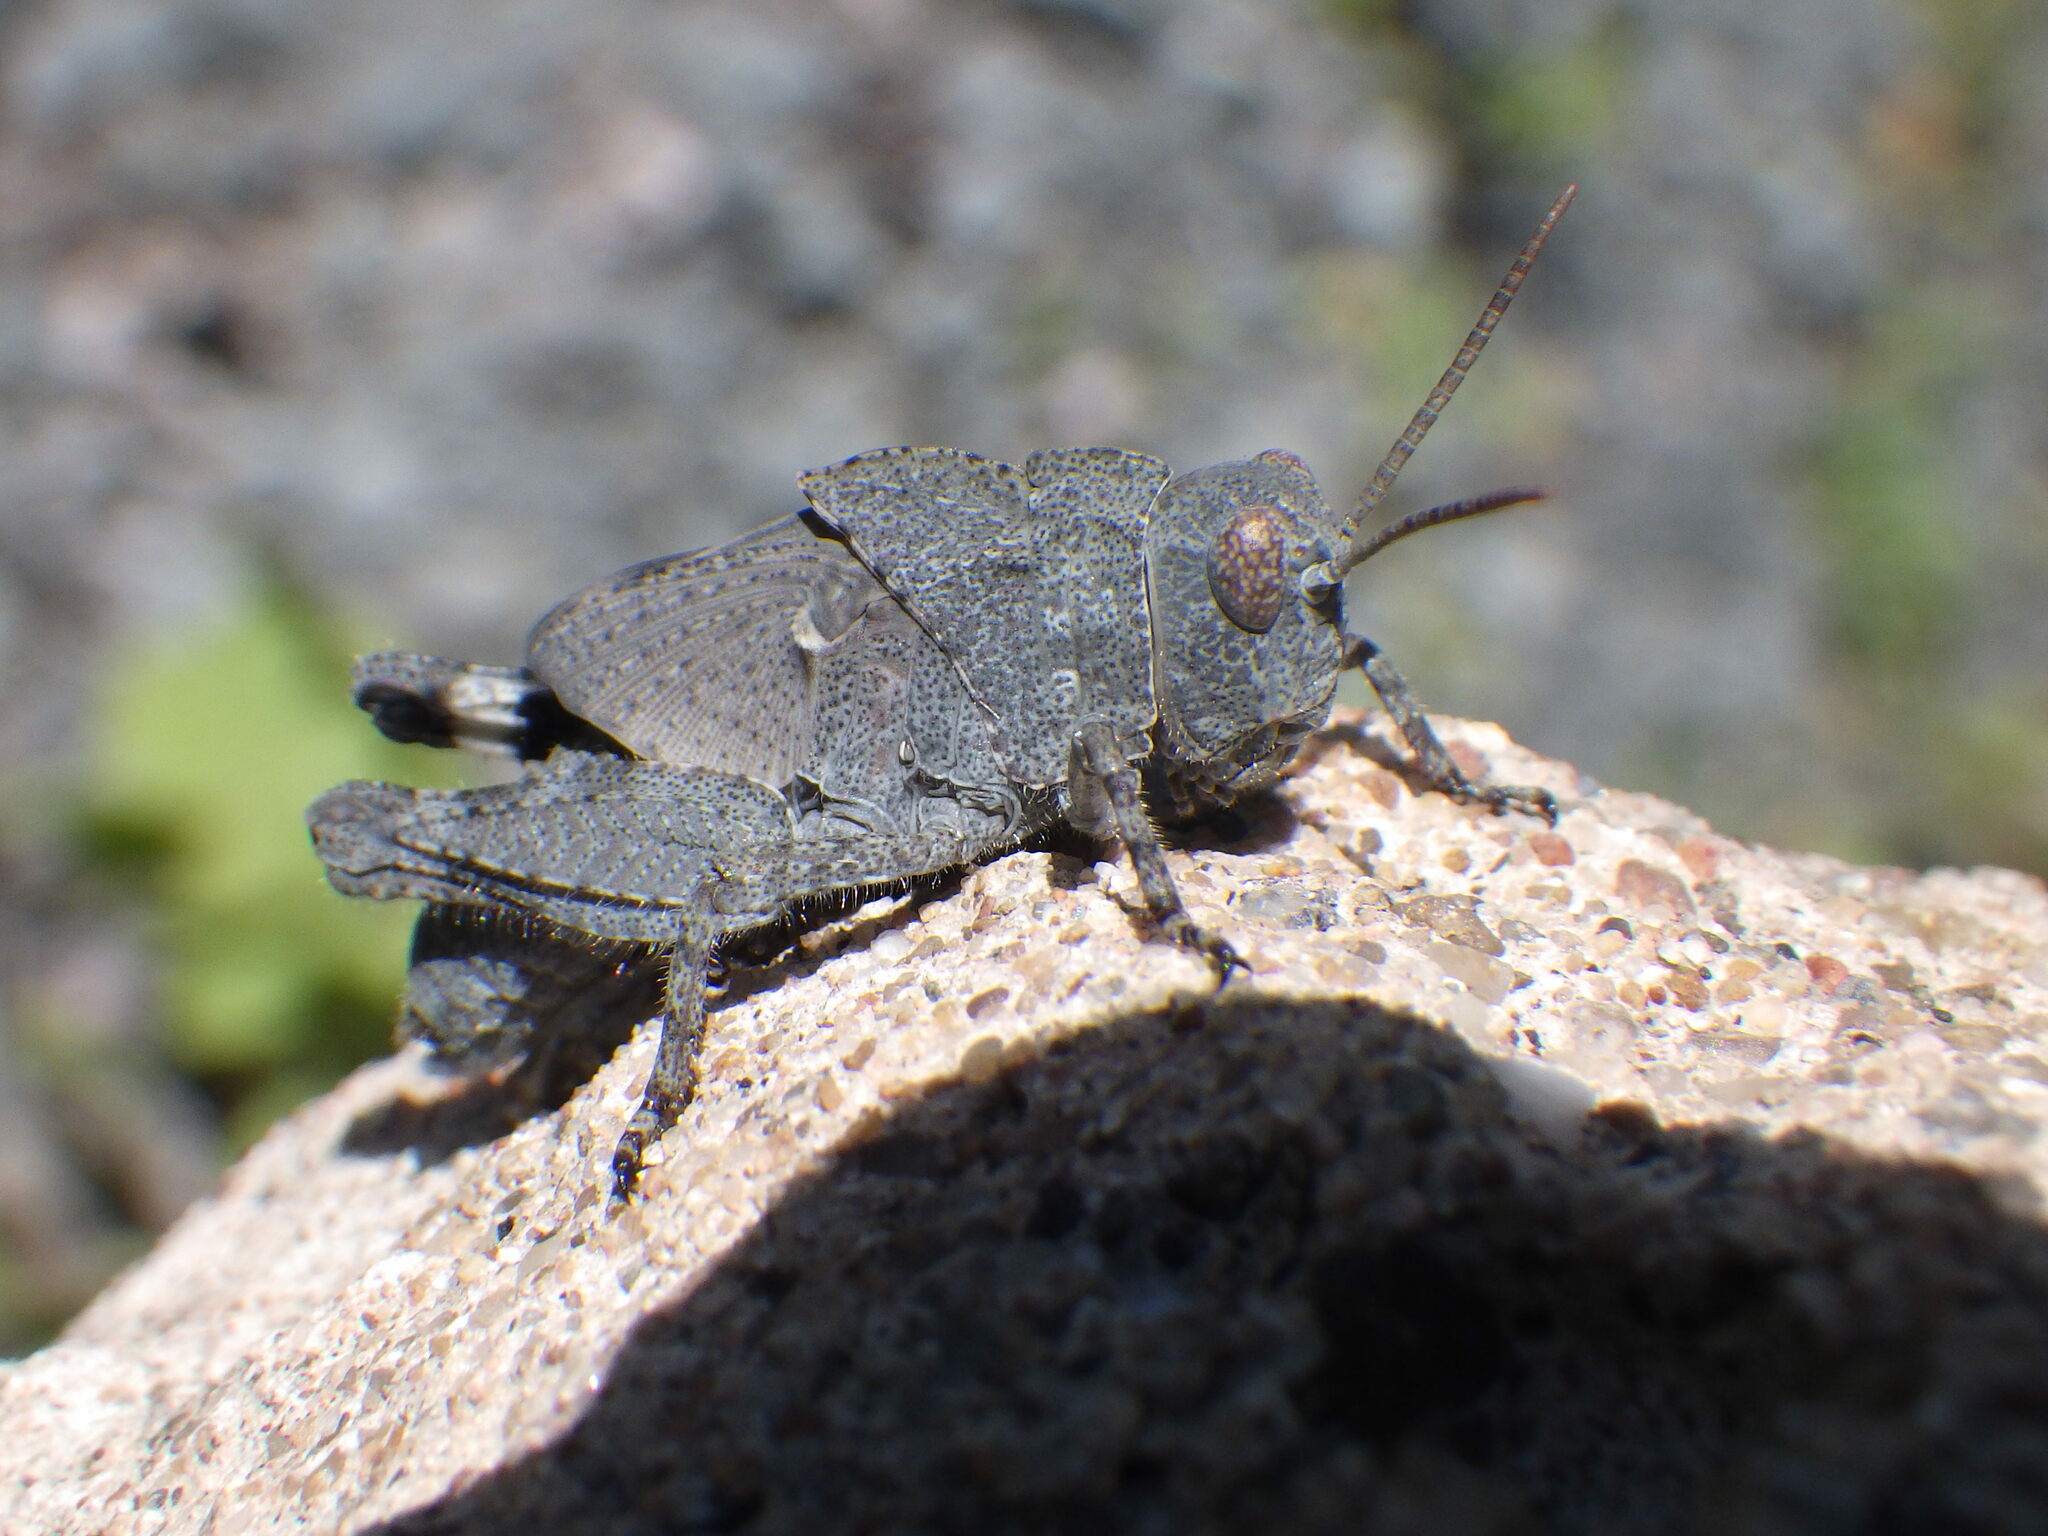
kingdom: Animalia
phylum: Arthropoda
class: Insecta
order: Orthoptera
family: Acrididae
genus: Dissosteira
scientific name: Dissosteira carolina
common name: Carolina grasshopper
